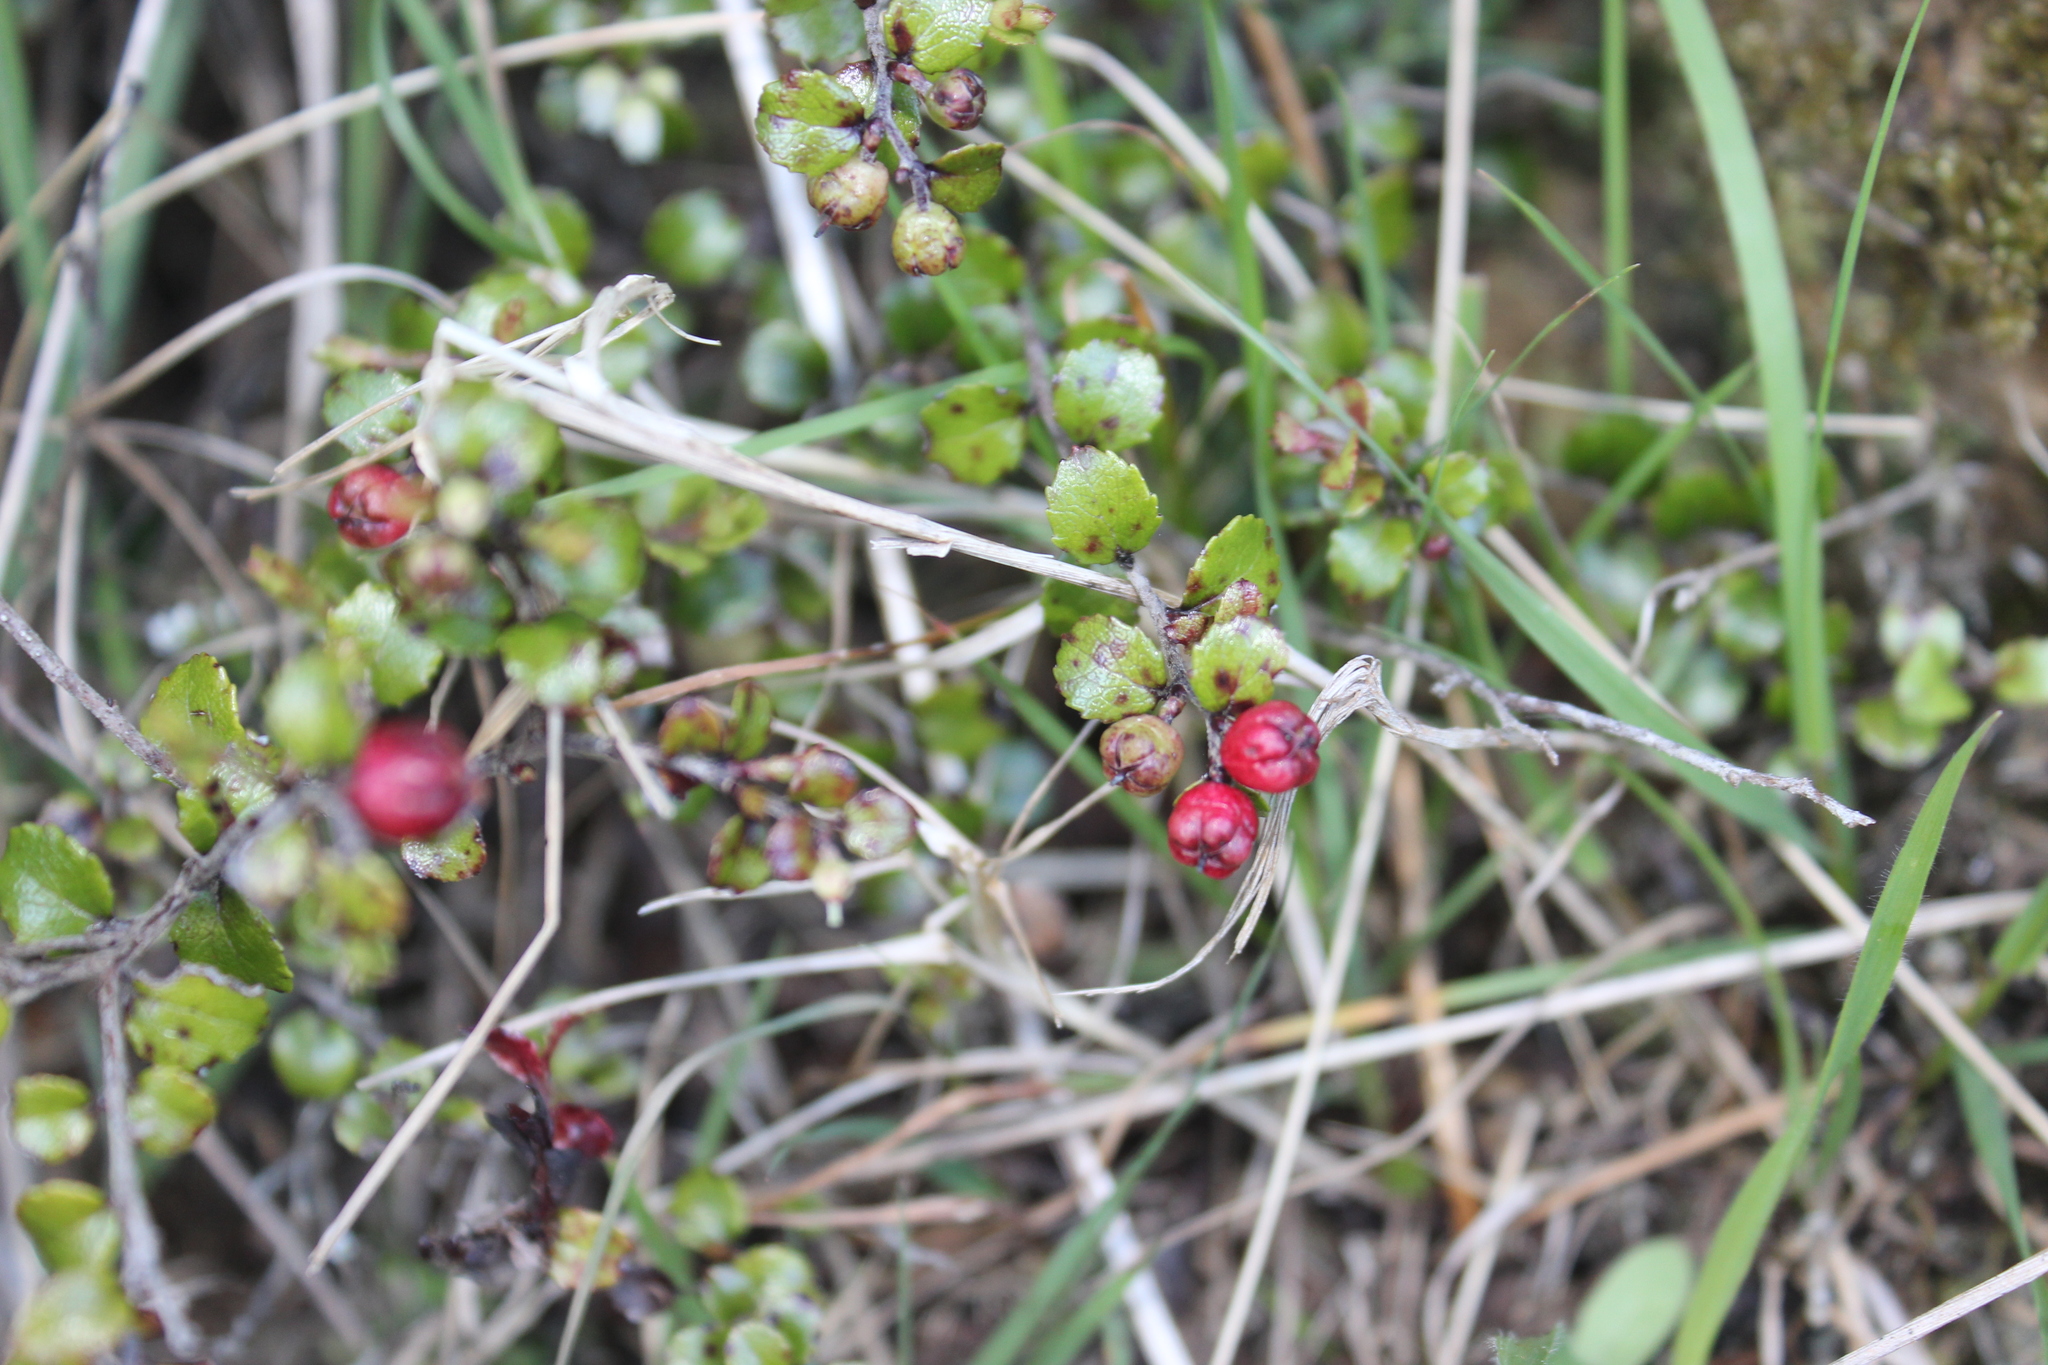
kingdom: Plantae
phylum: Tracheophyta
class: Magnoliopsida
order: Ericales
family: Ericaceae
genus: Gaultheria
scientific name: Gaultheria antipoda
